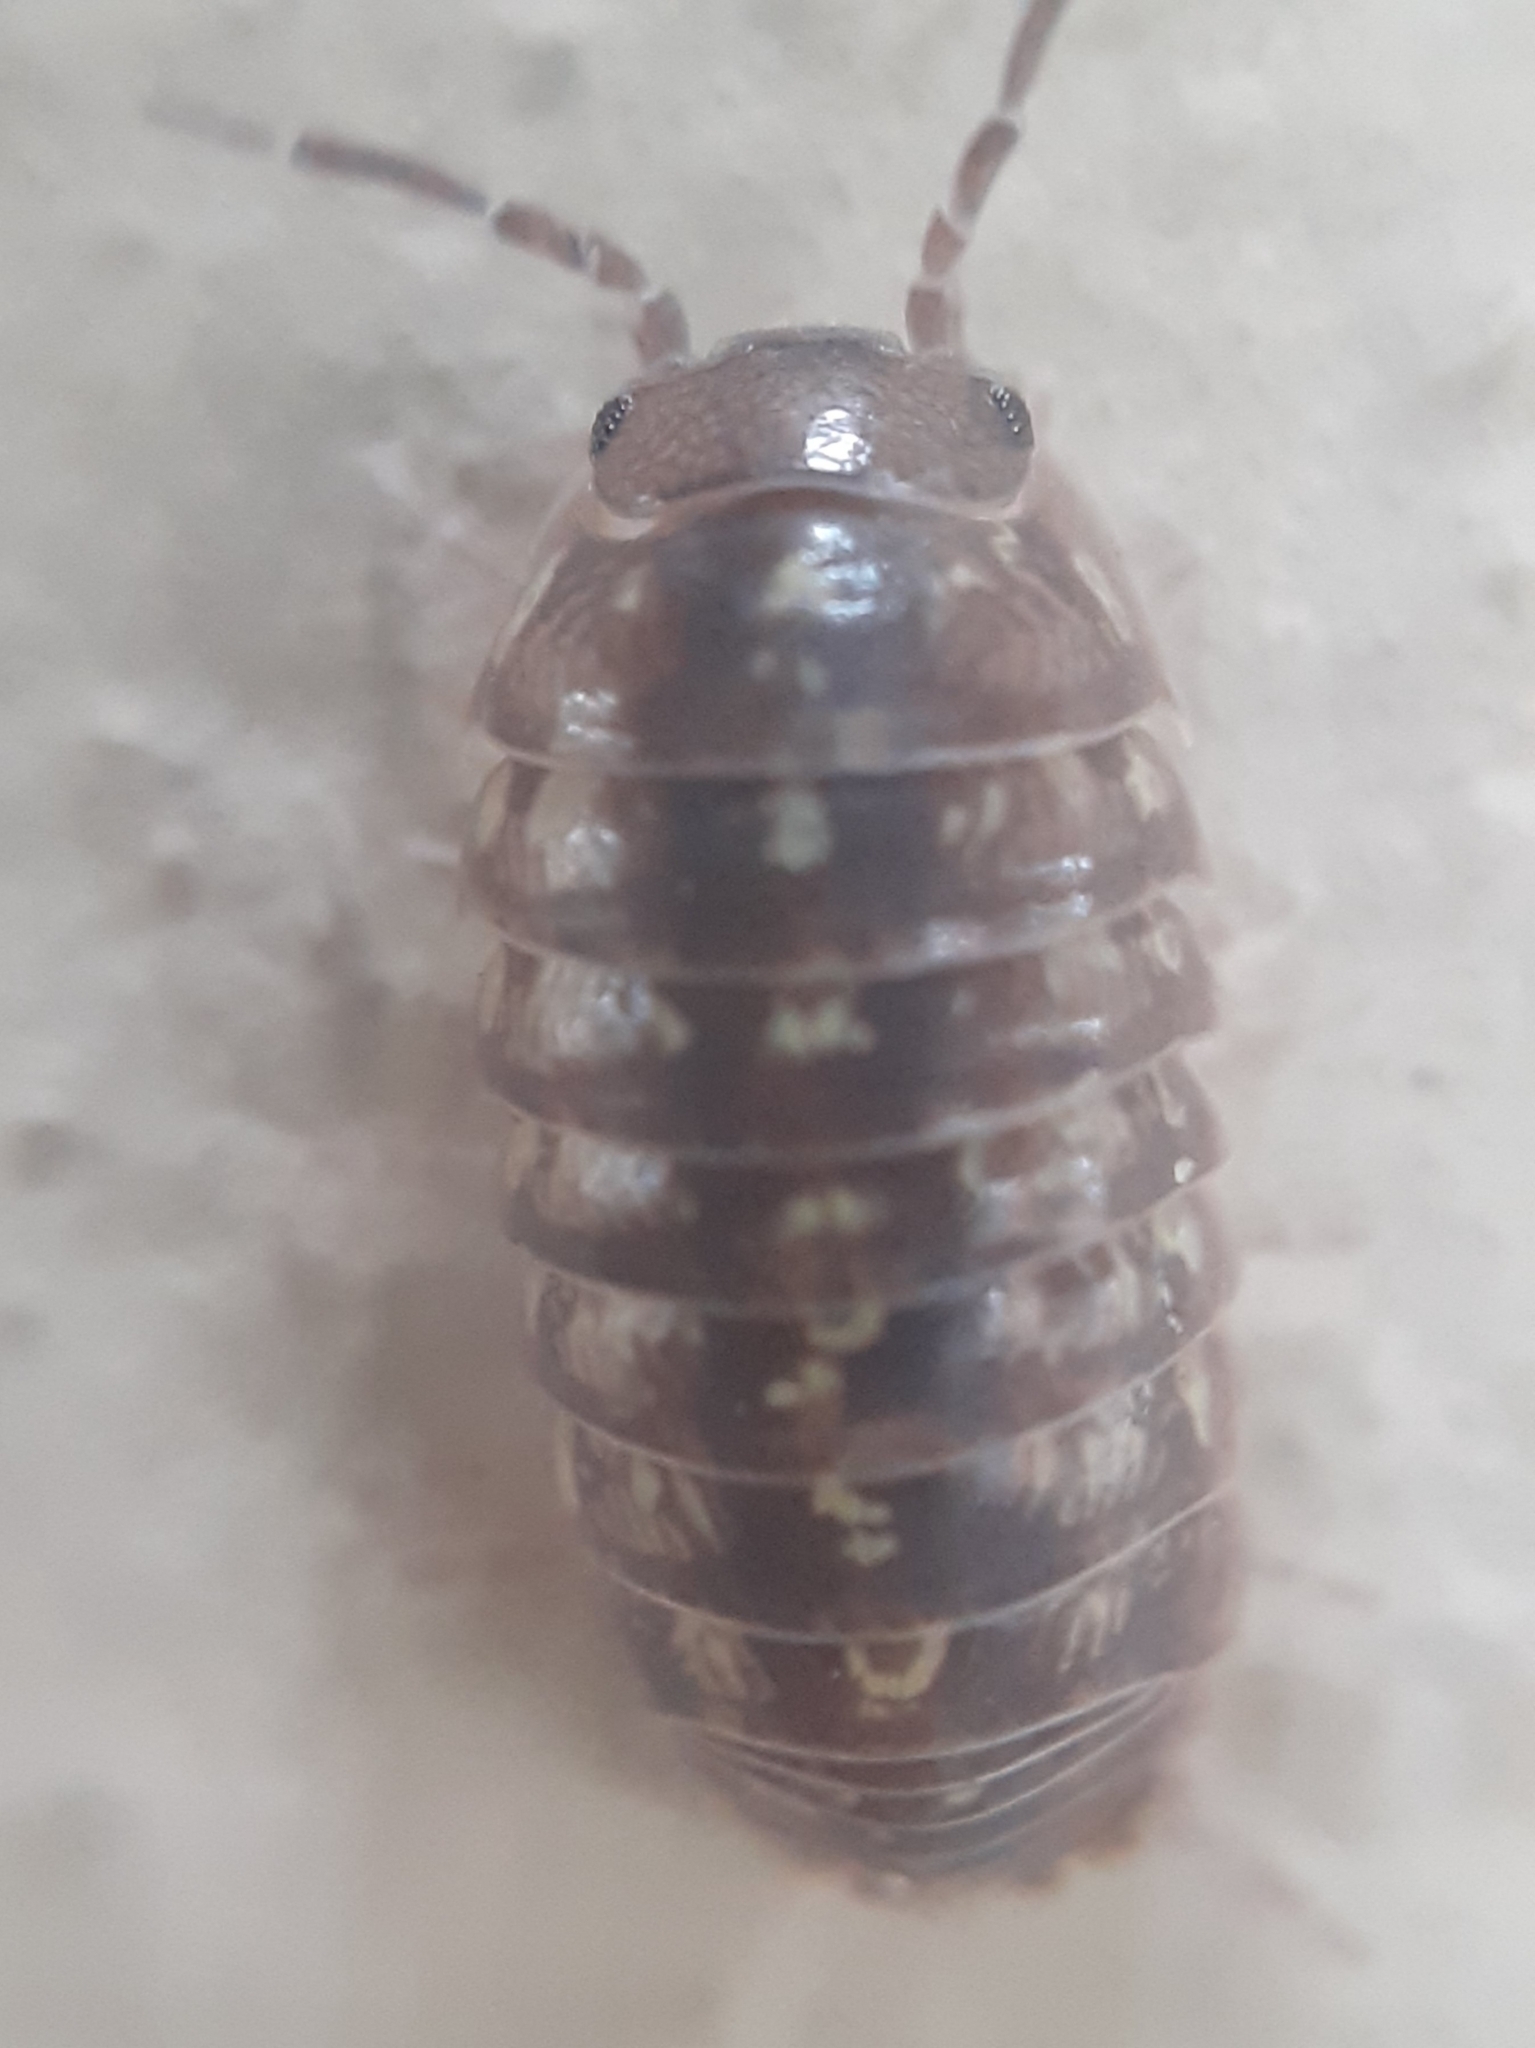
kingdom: Animalia
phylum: Arthropoda
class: Malacostraca
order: Isopoda
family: Armadillidiidae
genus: Armadillidium
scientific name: Armadillidium vulgare
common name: Common pill woodlouse
